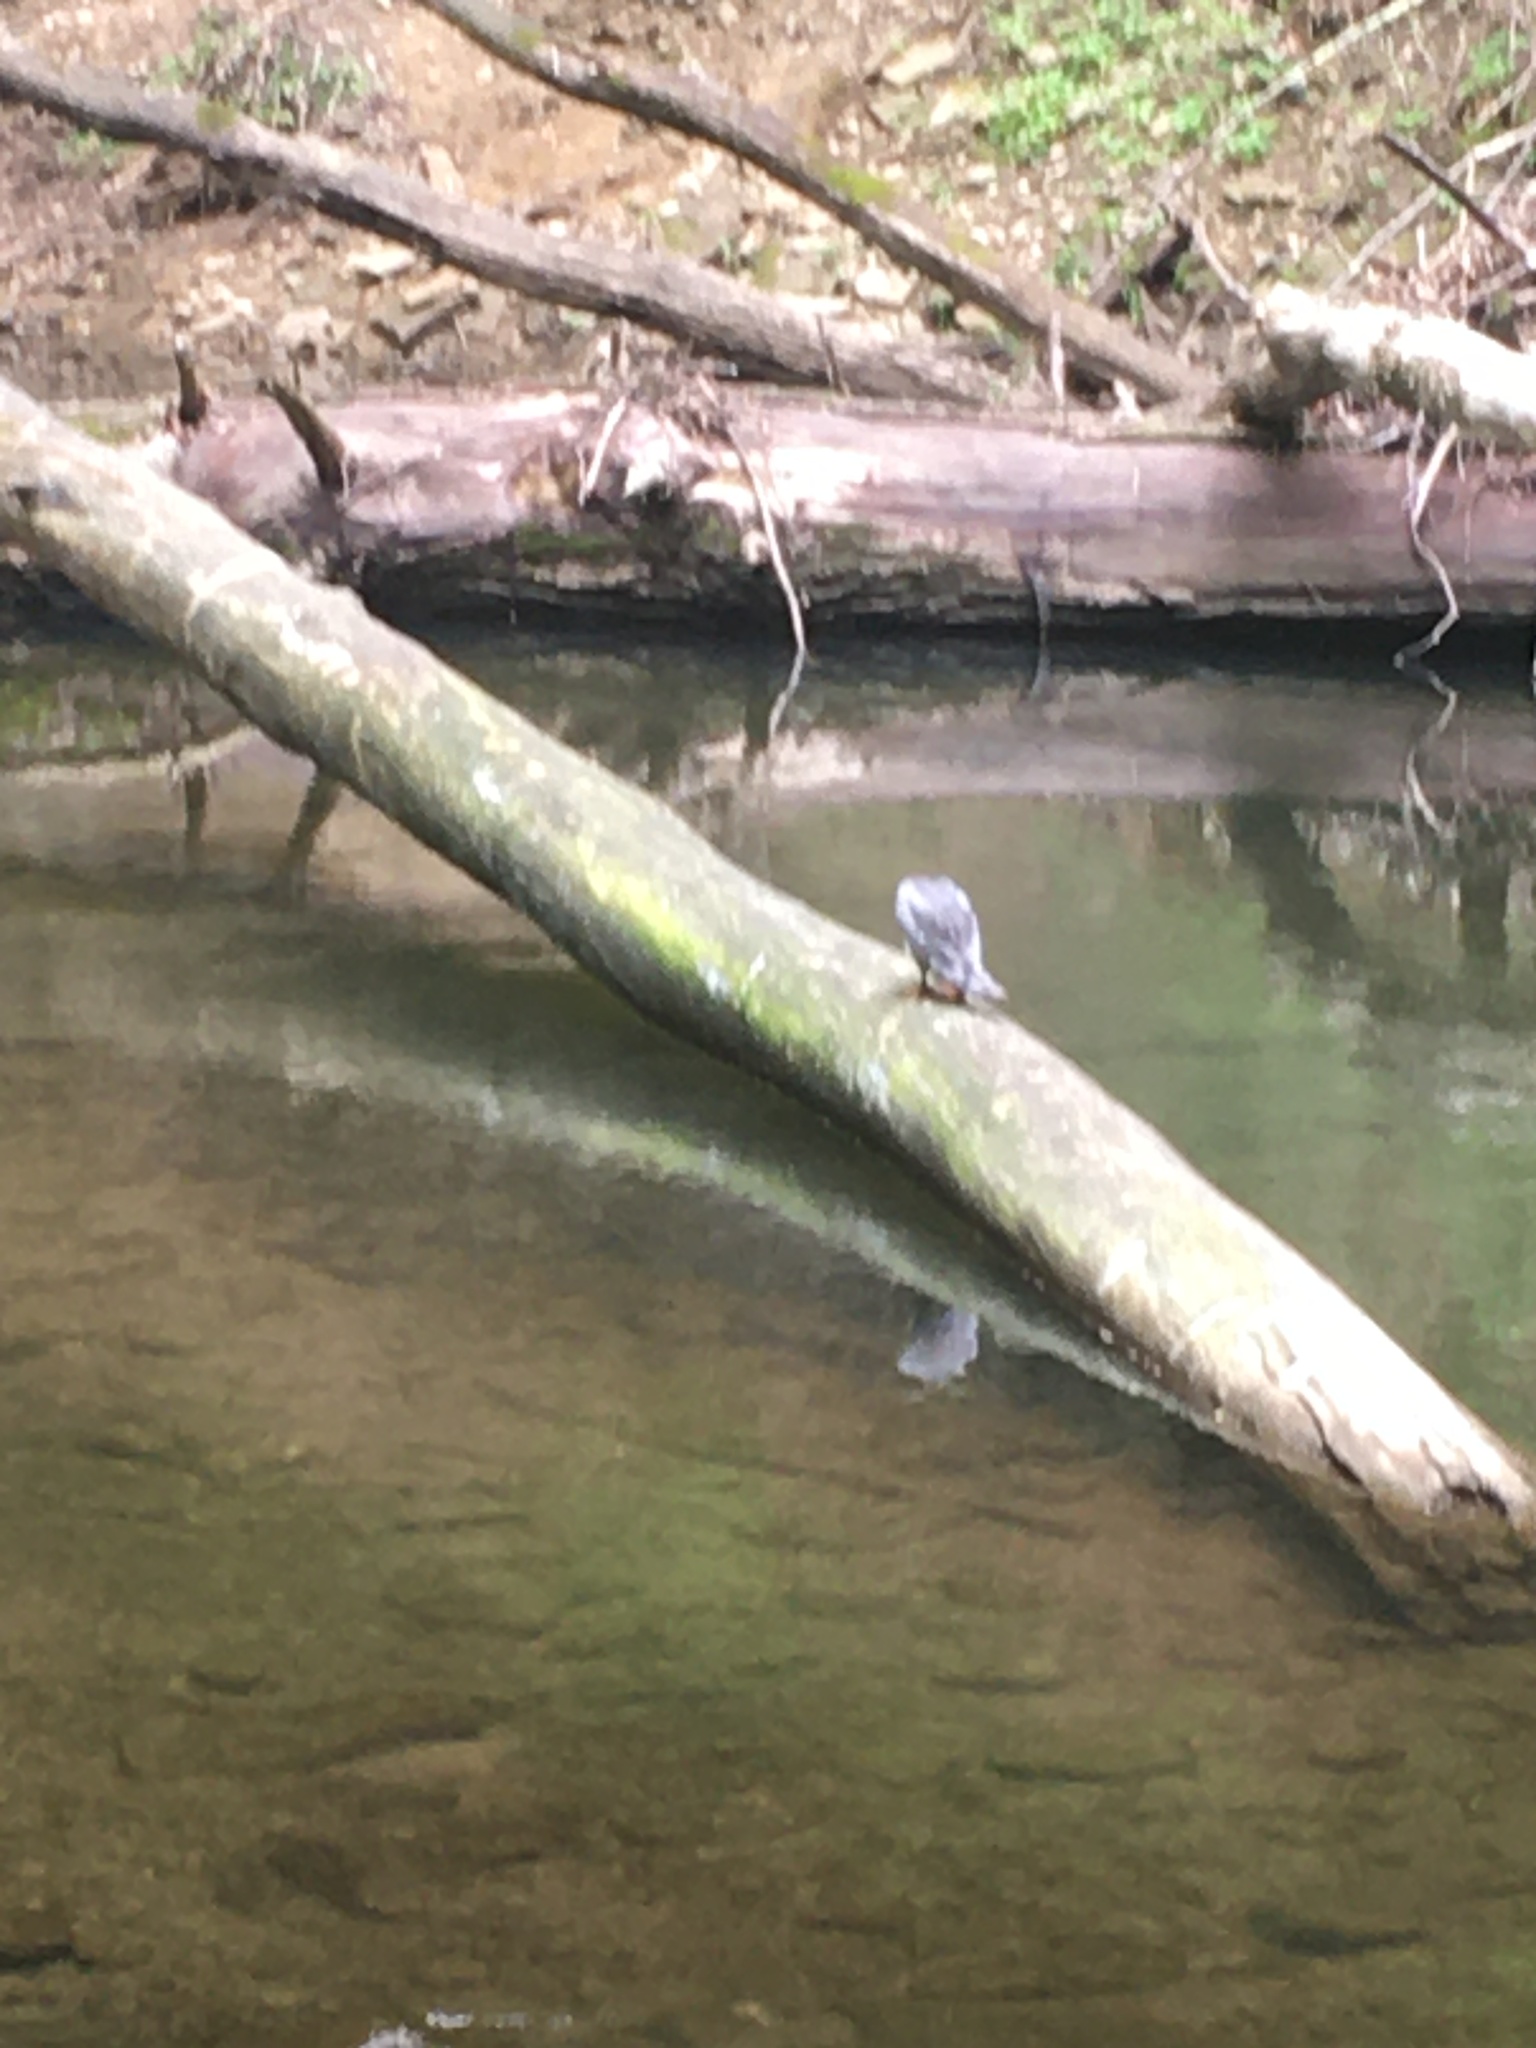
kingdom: Animalia
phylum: Chordata
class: Aves
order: Anseriformes
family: Anatidae
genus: Mergus
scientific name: Mergus merganser
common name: Common merganser
